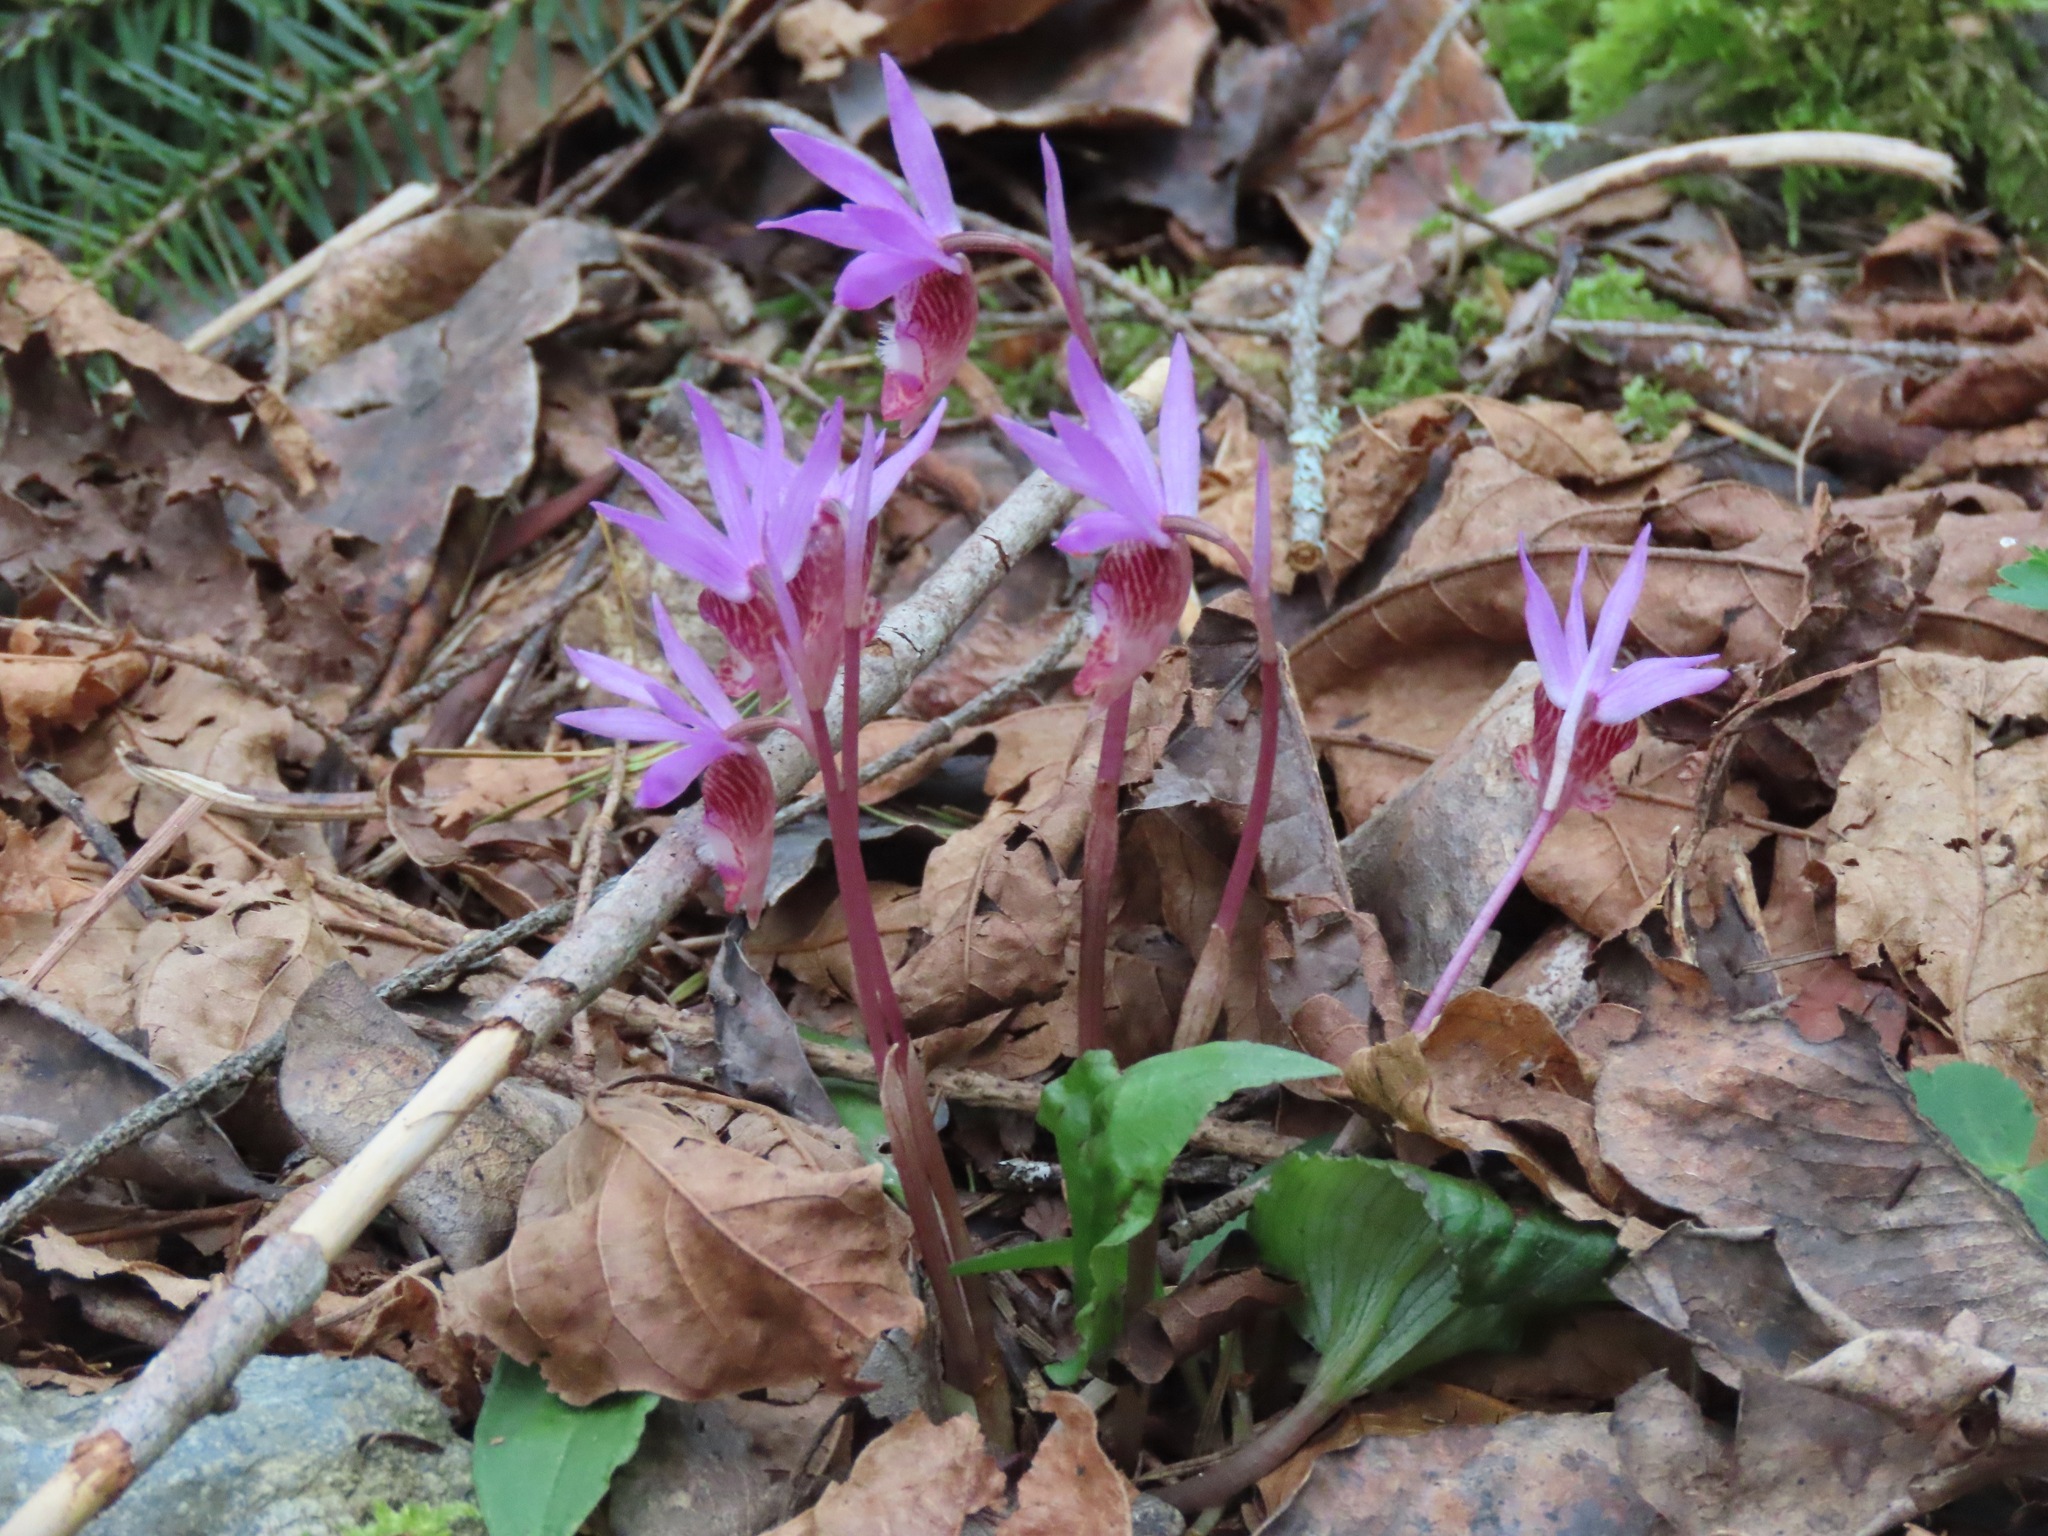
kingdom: Plantae
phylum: Tracheophyta
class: Liliopsida
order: Asparagales
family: Orchidaceae
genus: Calypso
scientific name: Calypso bulbosa
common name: Calypso
